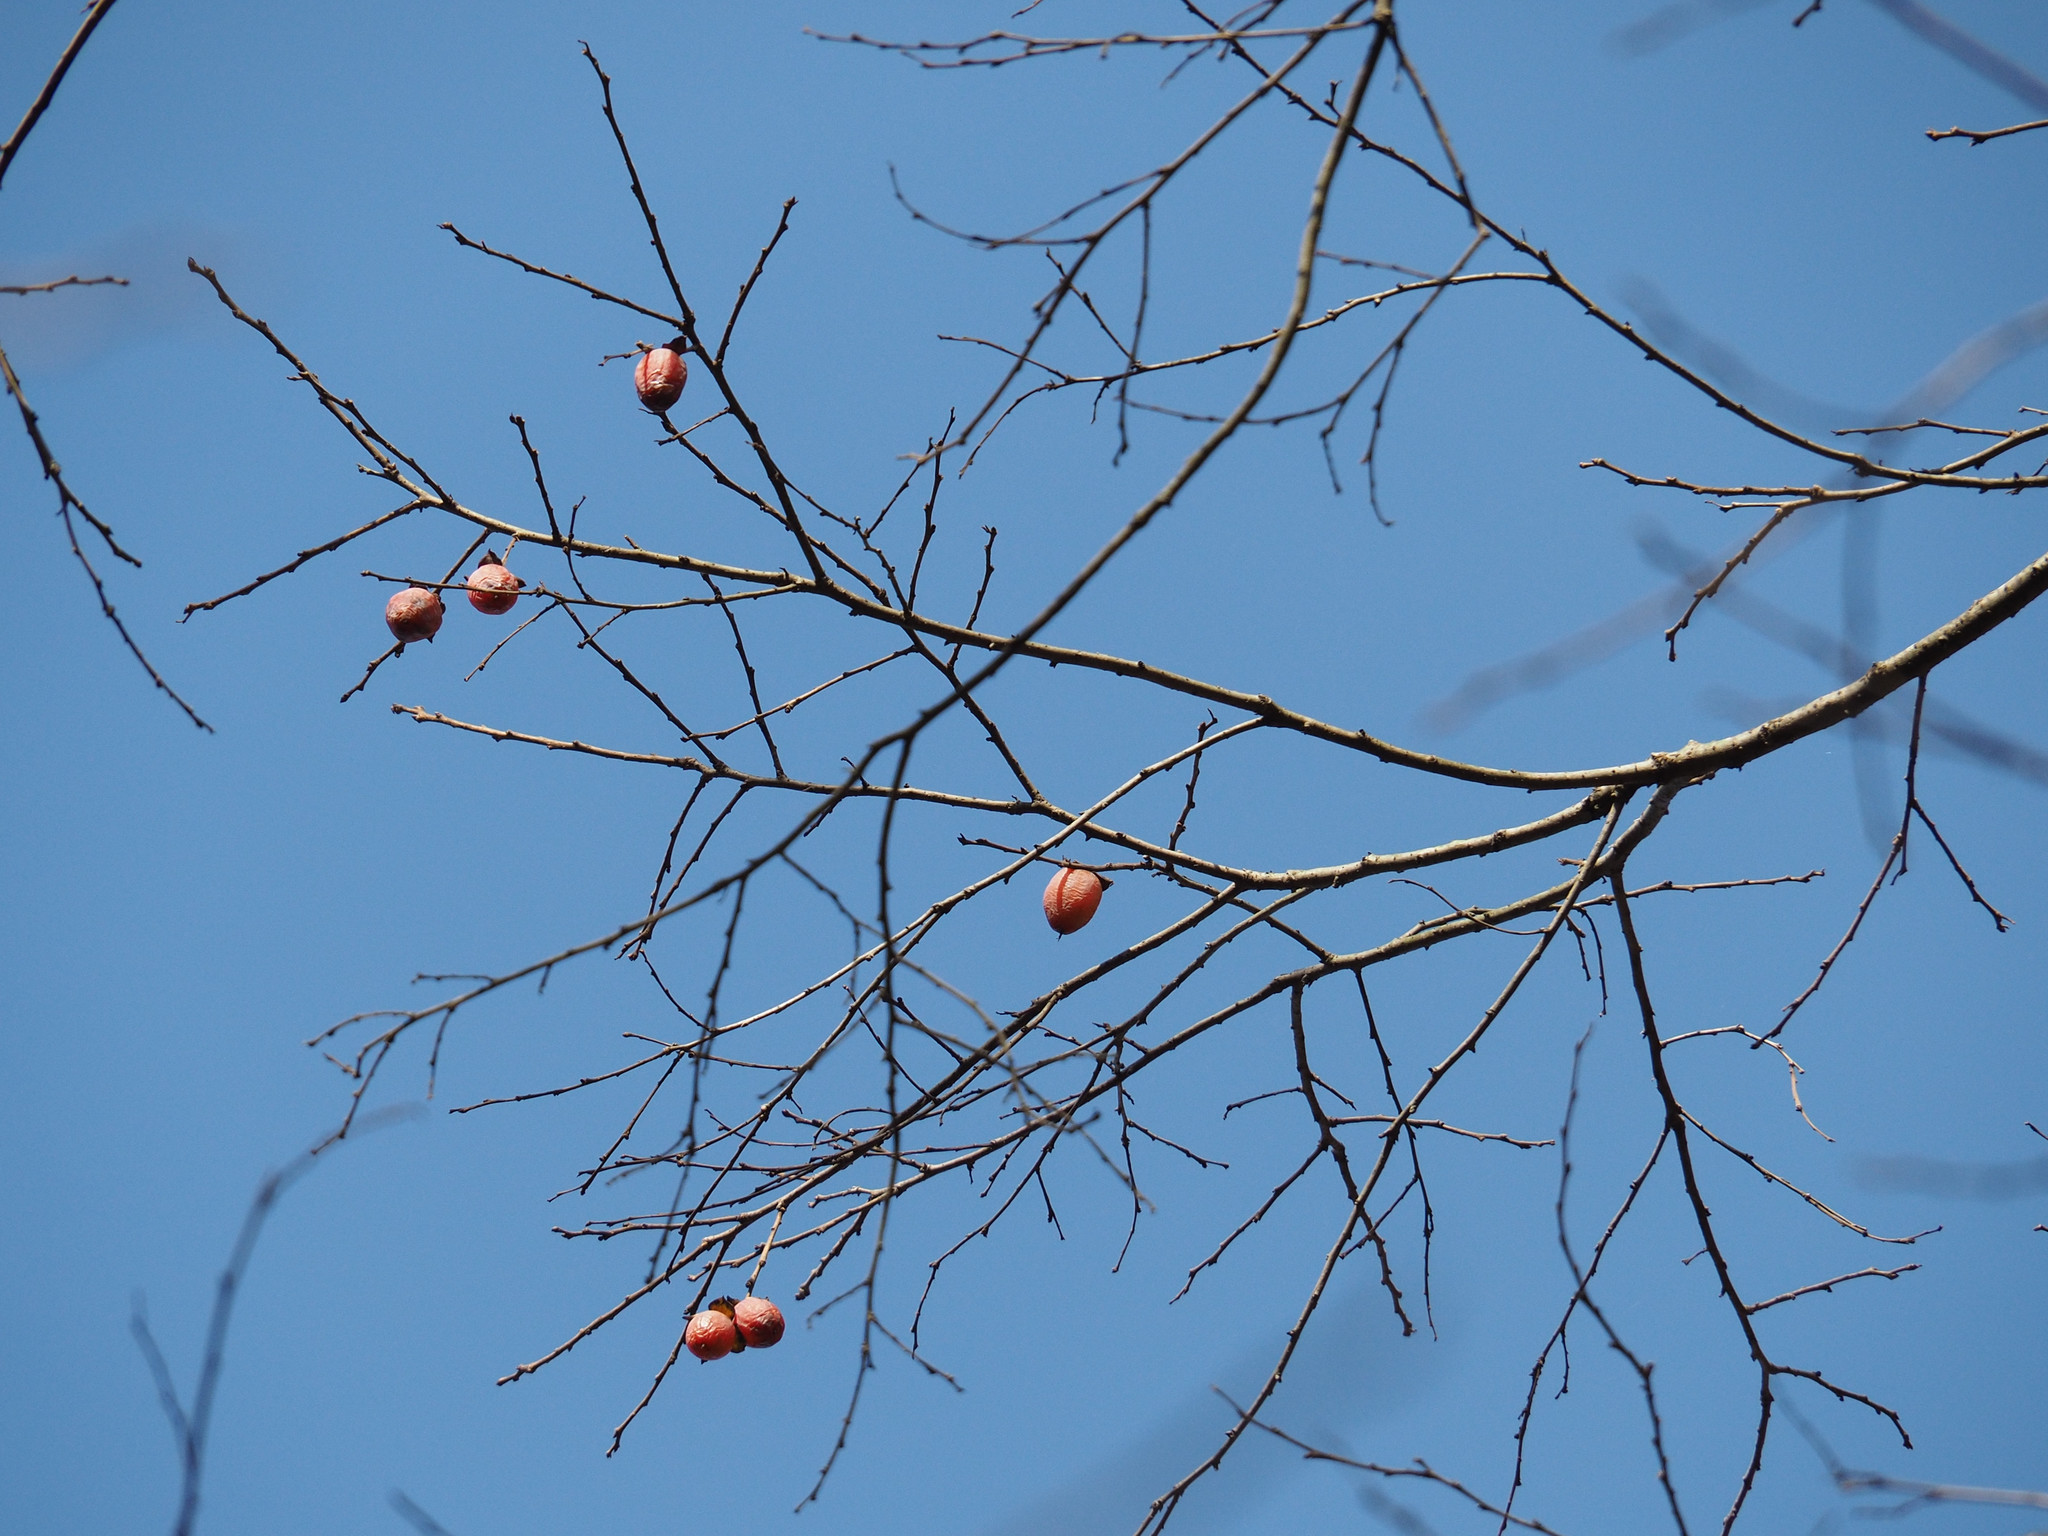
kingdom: Plantae
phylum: Tracheophyta
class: Magnoliopsida
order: Ericales
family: Ebenaceae
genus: Diospyros
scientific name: Diospyros virginiana
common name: Persimmon
